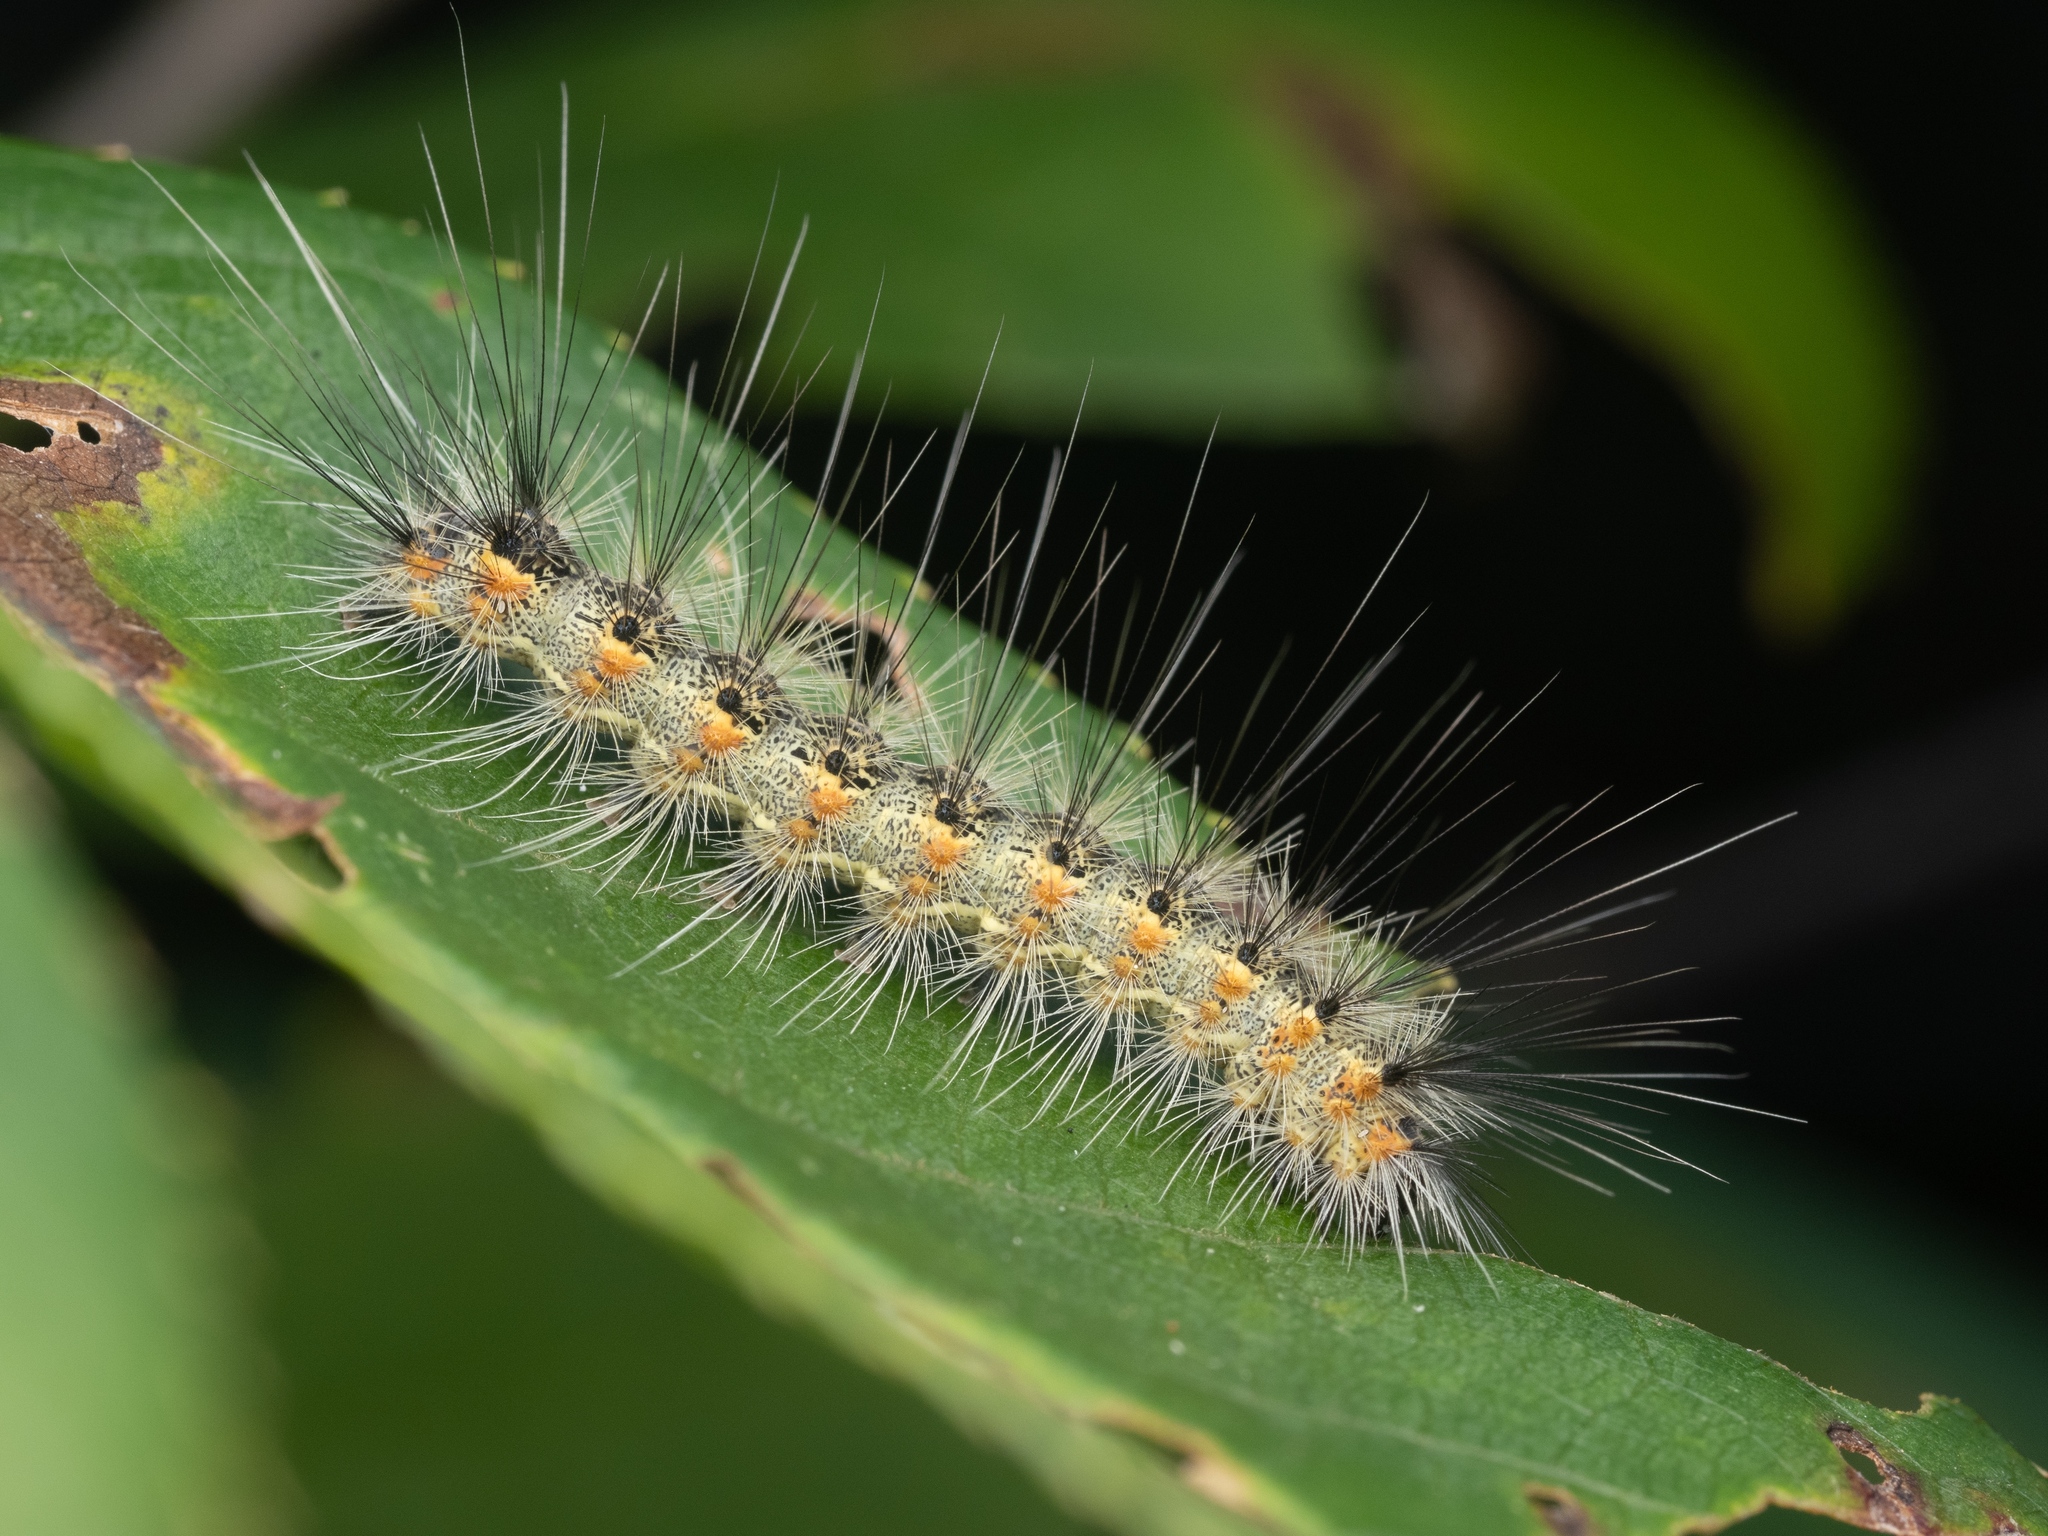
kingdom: Animalia
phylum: Arthropoda
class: Insecta
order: Lepidoptera
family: Erebidae
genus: Hyphantria
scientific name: Hyphantria cunea
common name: American white moth
